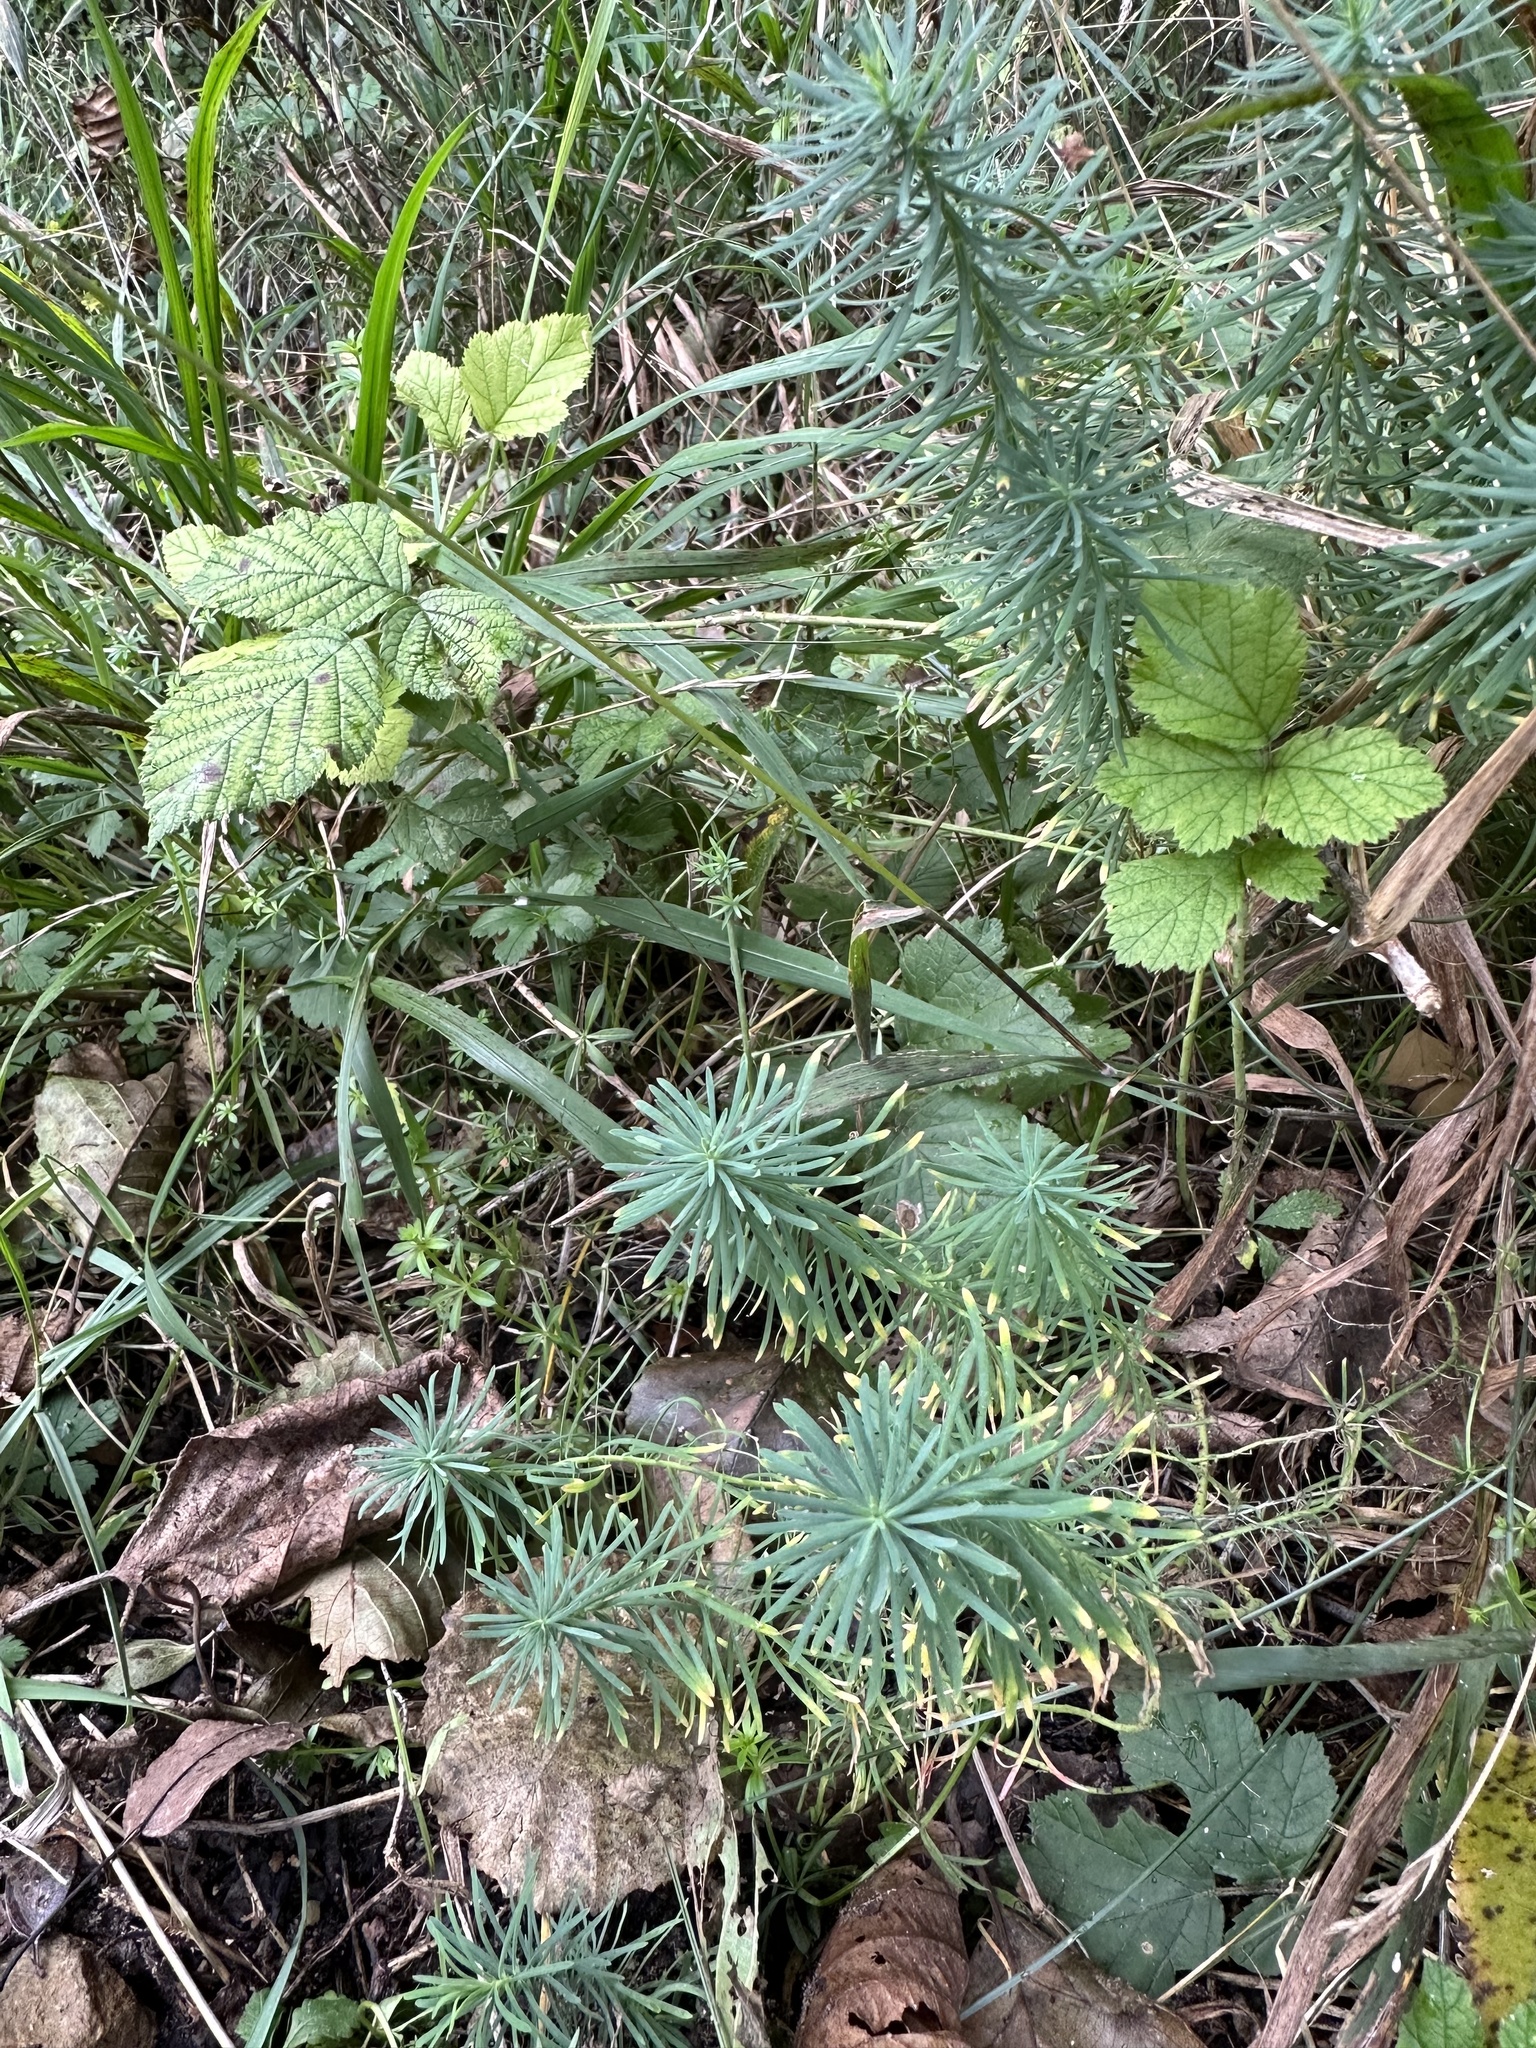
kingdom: Plantae
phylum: Tracheophyta
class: Magnoliopsida
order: Malpighiales
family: Euphorbiaceae
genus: Euphorbia
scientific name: Euphorbia cyparissias
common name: Cypress spurge
